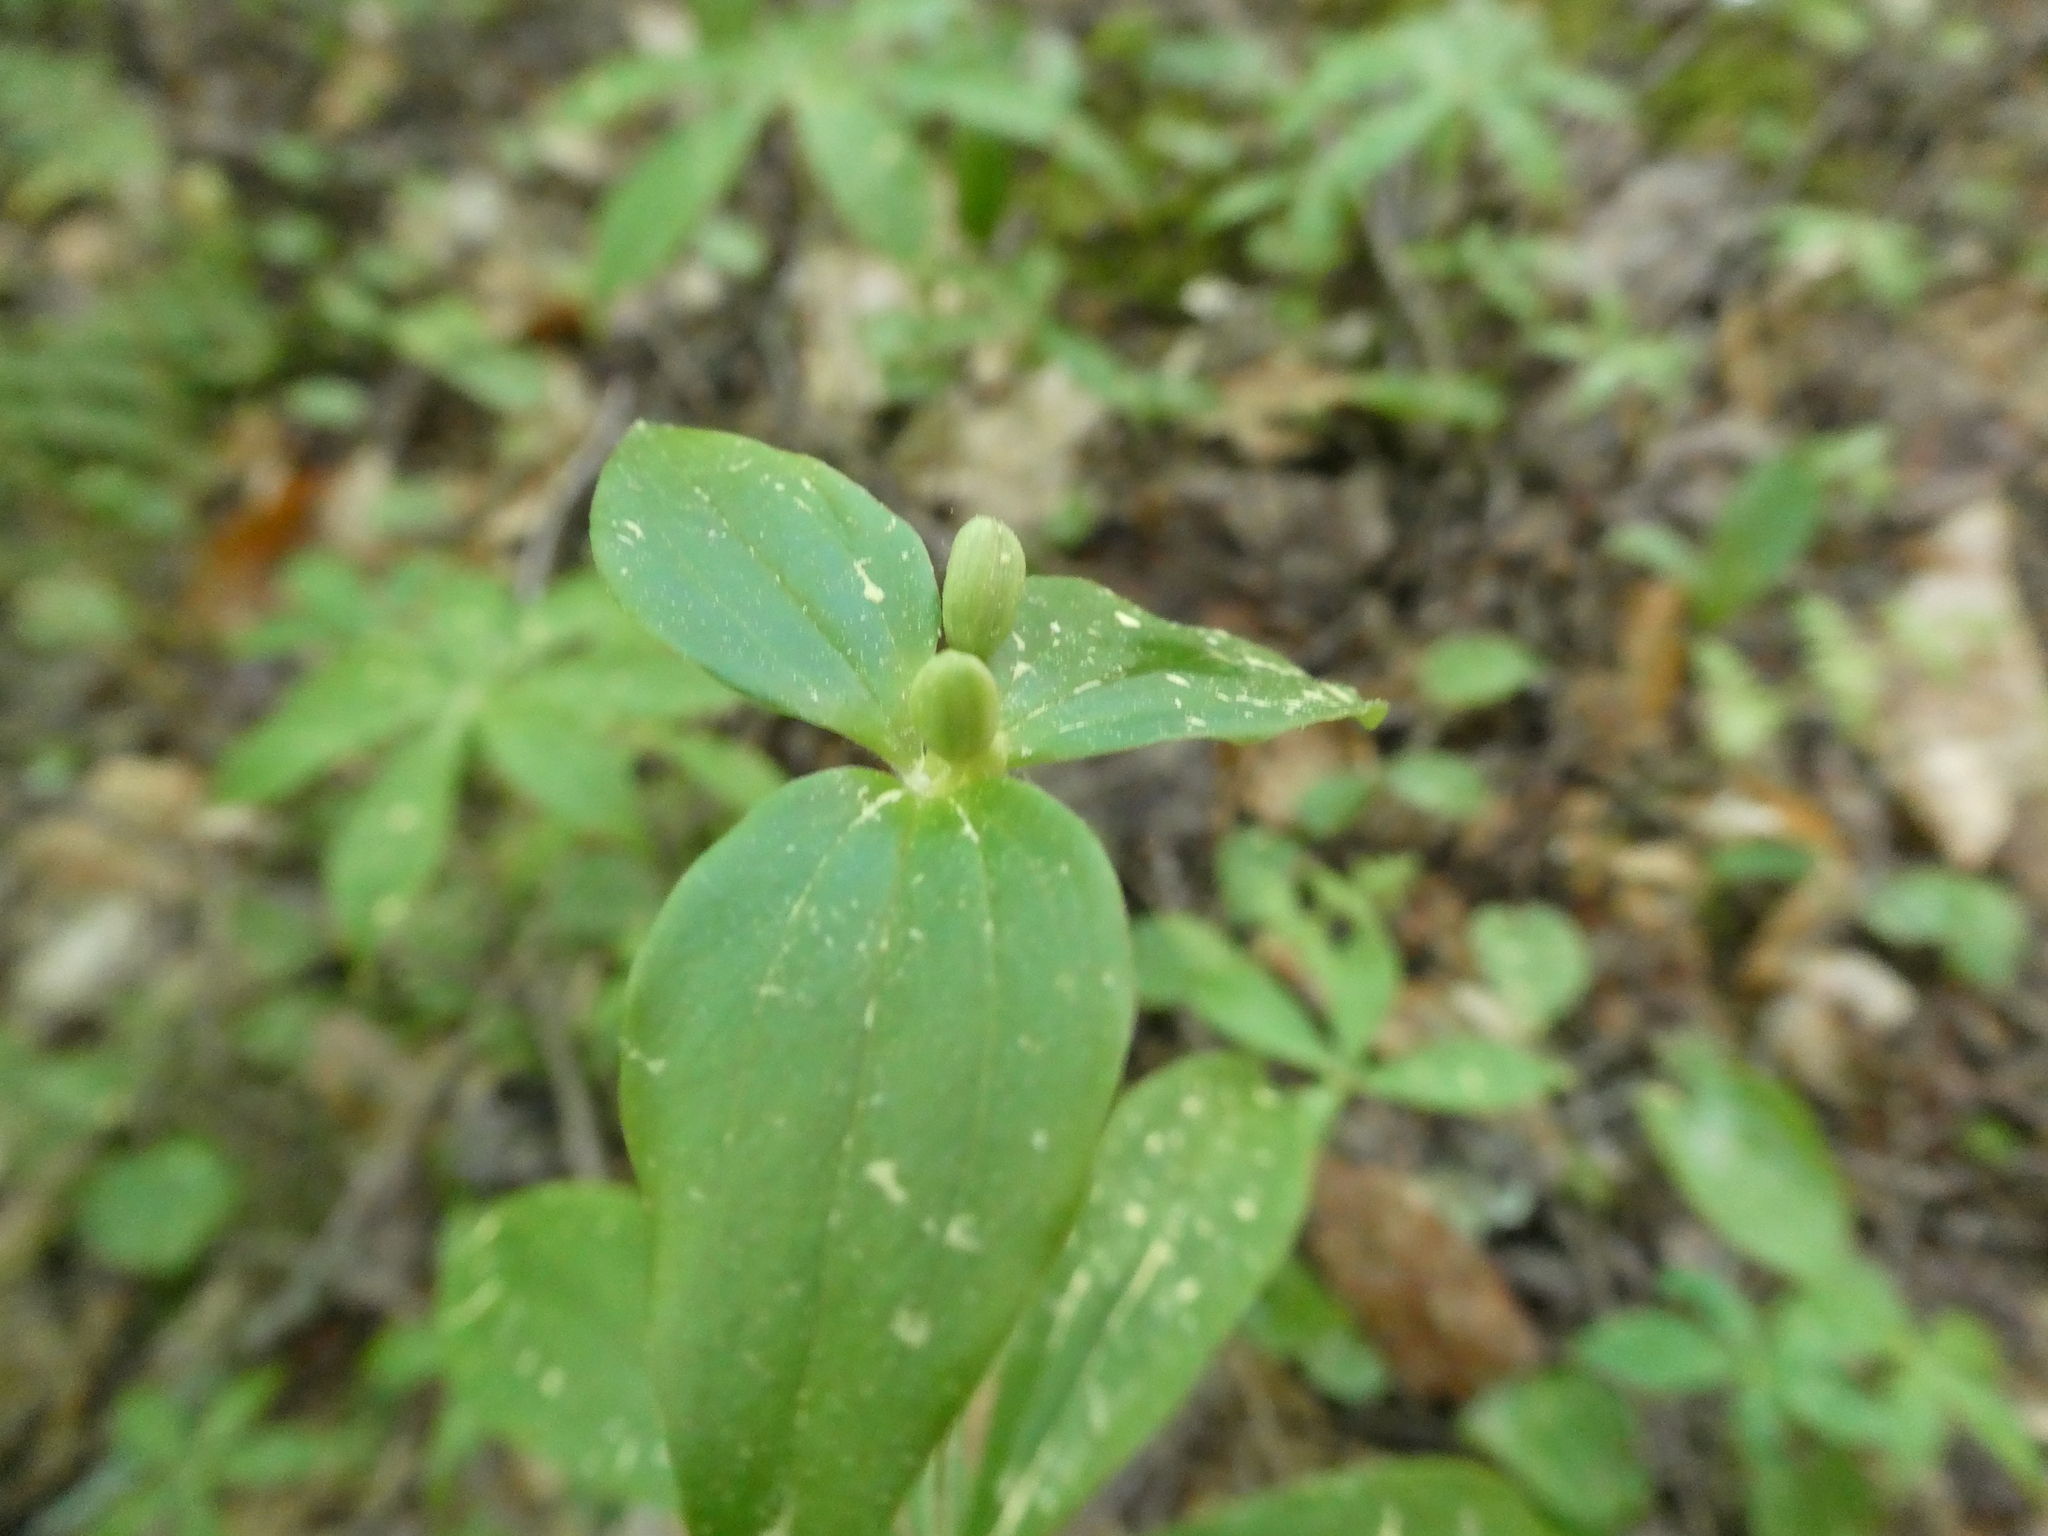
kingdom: Plantae
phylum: Tracheophyta
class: Liliopsida
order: Liliales
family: Liliaceae
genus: Medeola
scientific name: Medeola virginiana
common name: Indian cucumber-root
